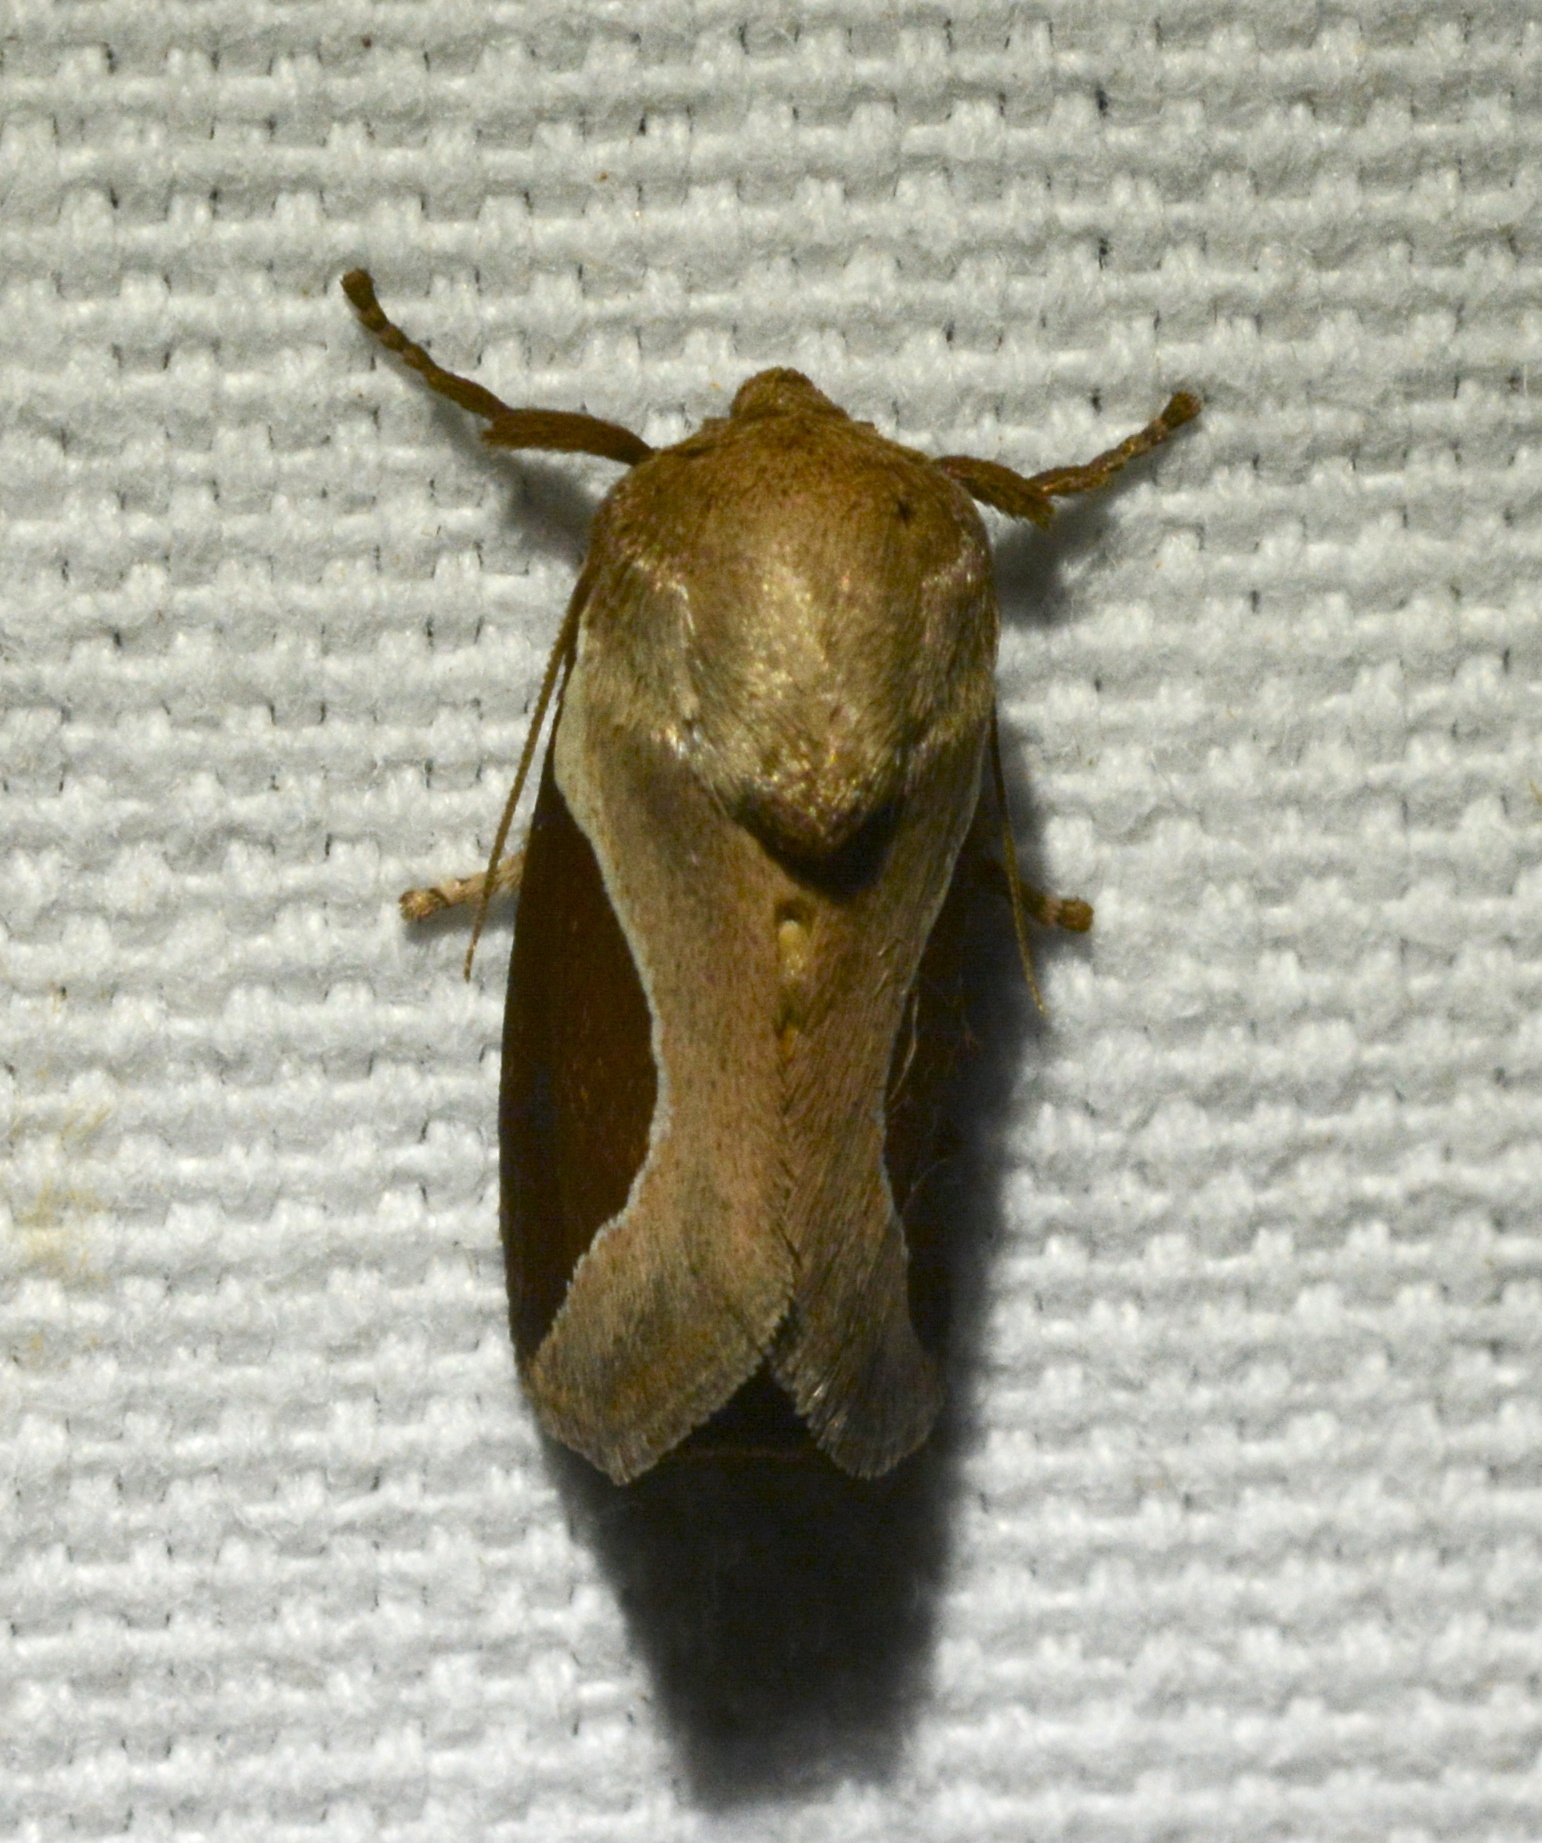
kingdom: Animalia
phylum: Arthropoda
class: Insecta
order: Lepidoptera
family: Limacodidae
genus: Prolimacodes
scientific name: Prolimacodes badia
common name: Skiff moth
